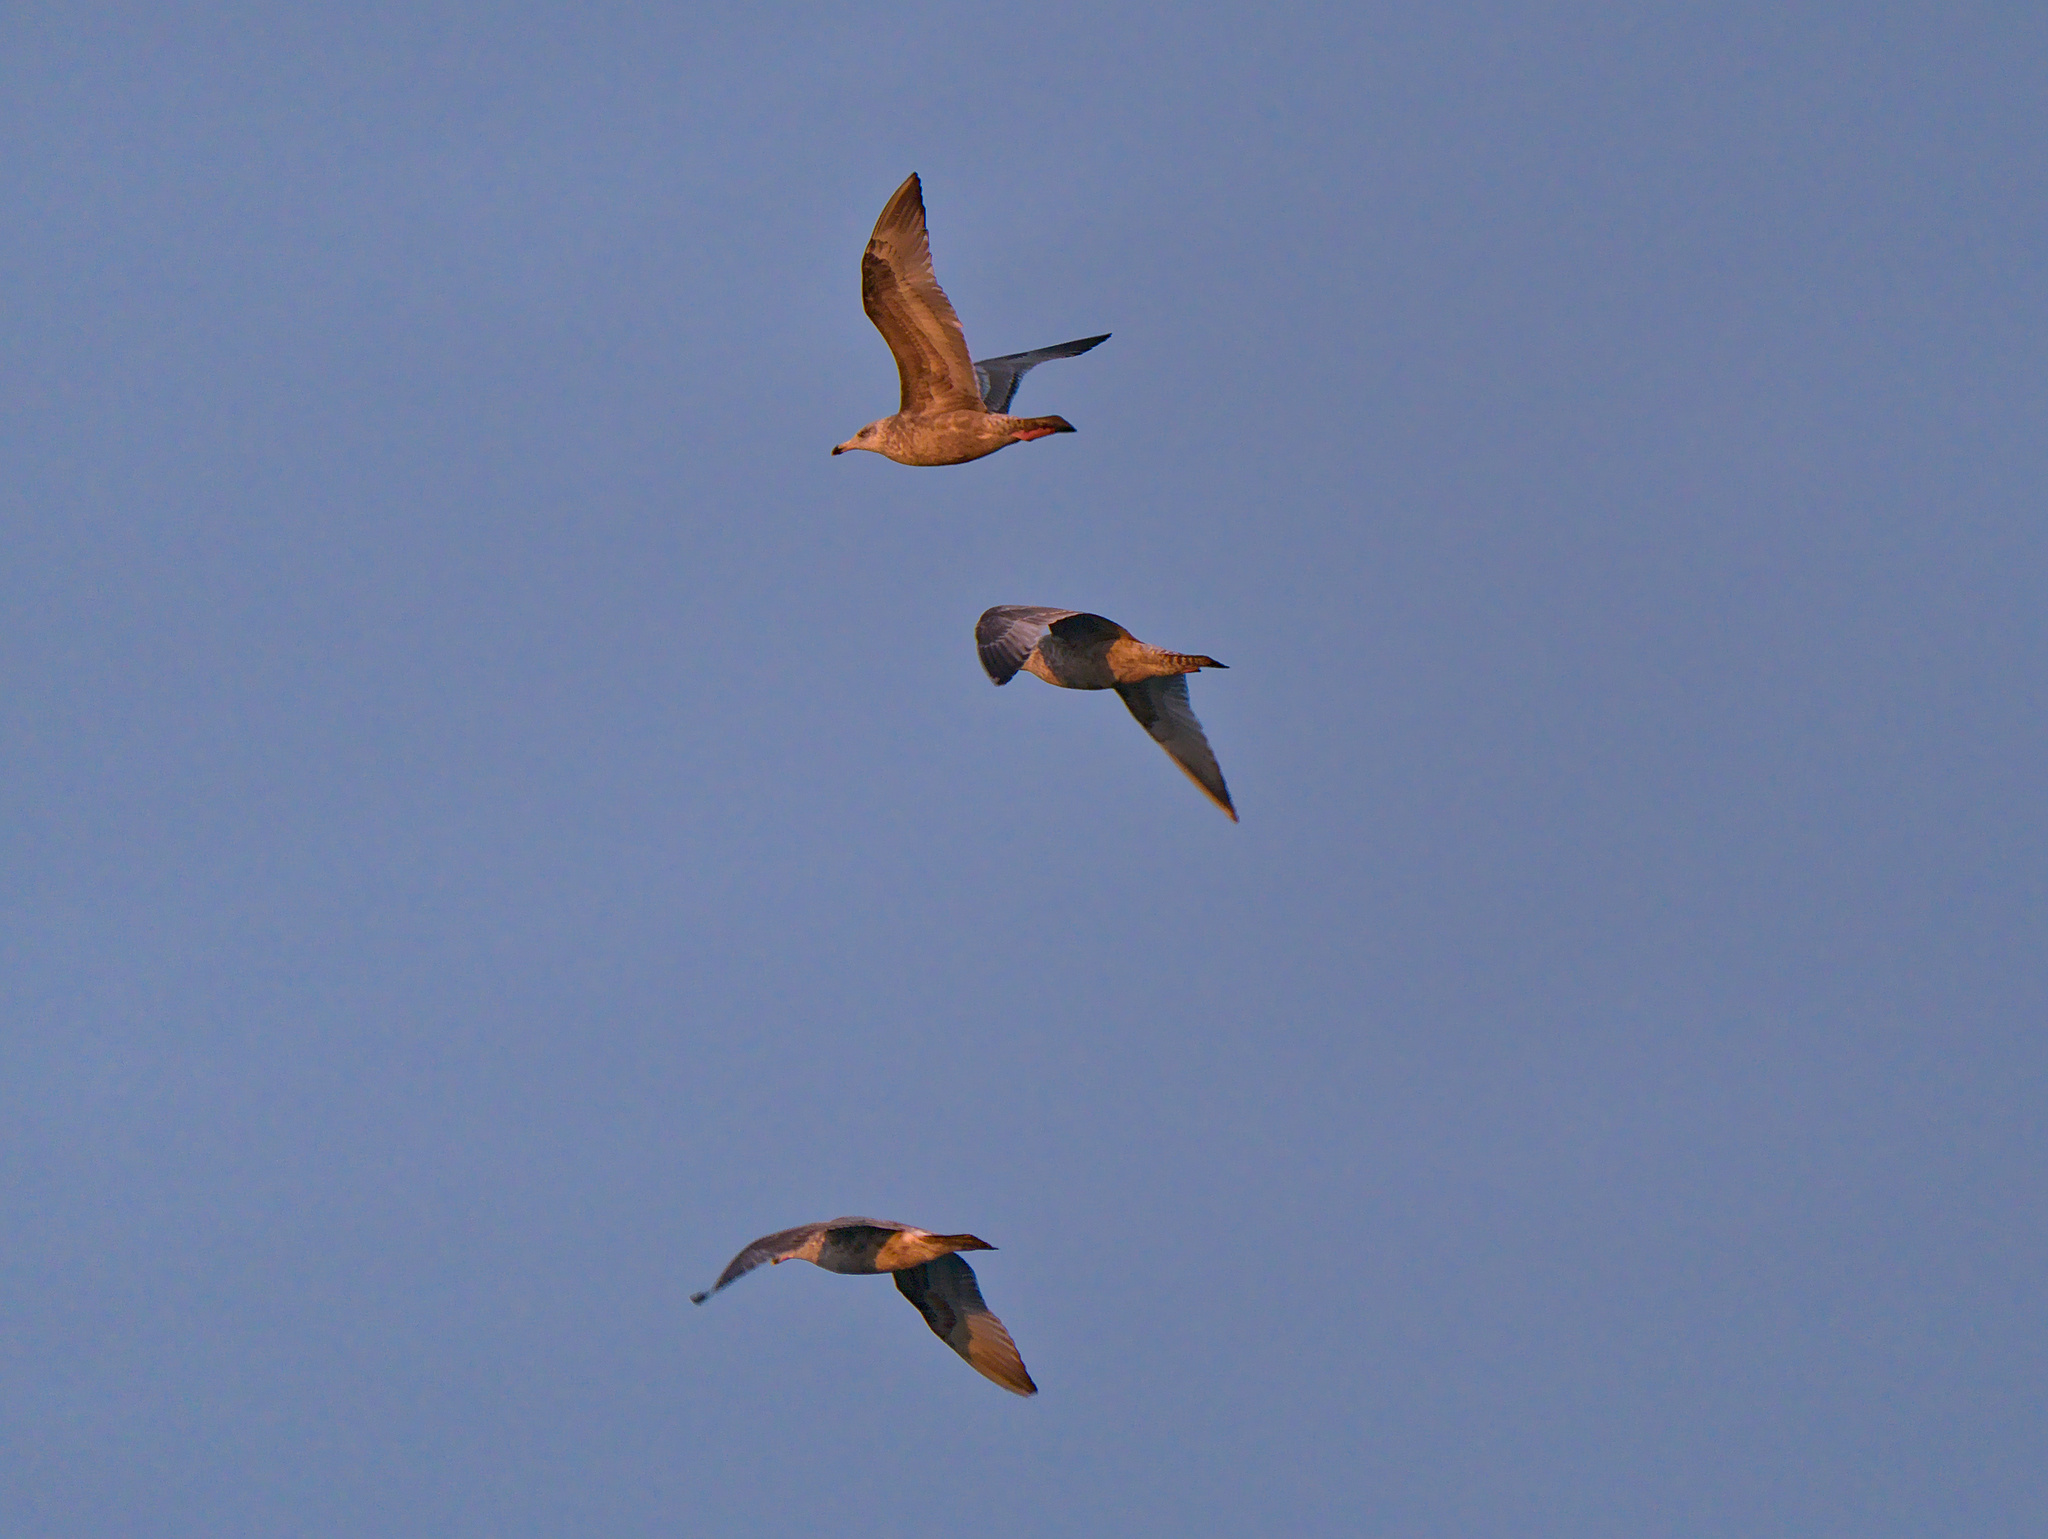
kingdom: Animalia
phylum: Chordata
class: Aves
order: Charadriiformes
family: Laridae
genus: Larus
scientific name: Larus smithsonianus
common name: American herring gull
